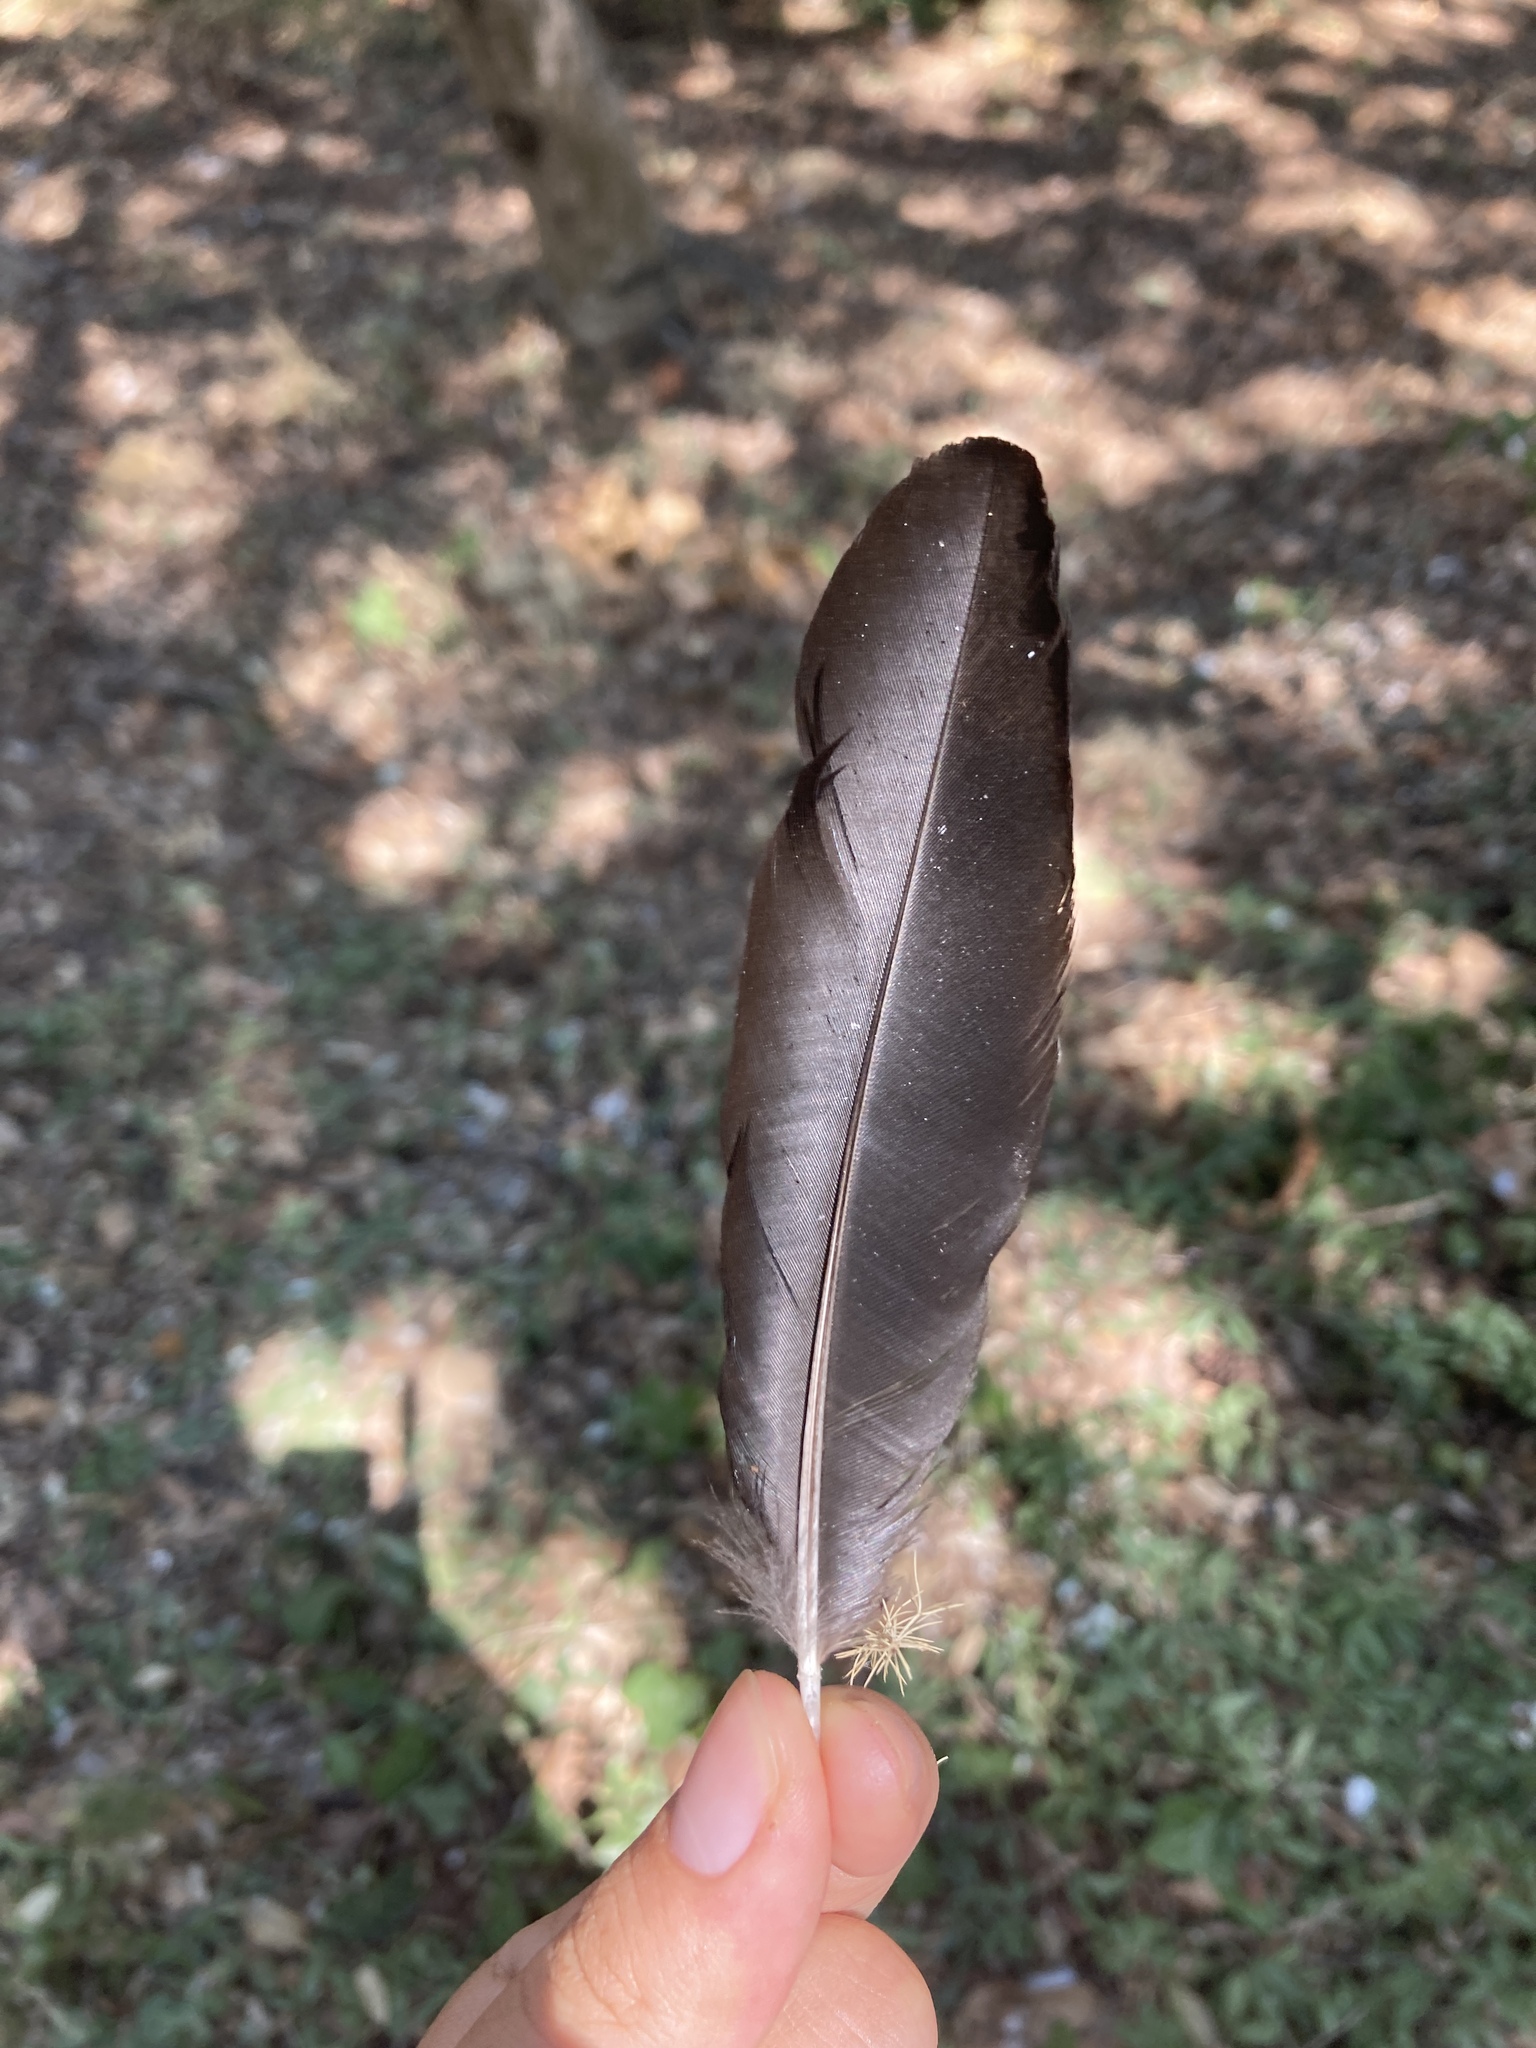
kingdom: Animalia
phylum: Chordata
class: Aves
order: Passeriformes
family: Corvidae
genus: Pica
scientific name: Pica pica
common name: Eurasian magpie
